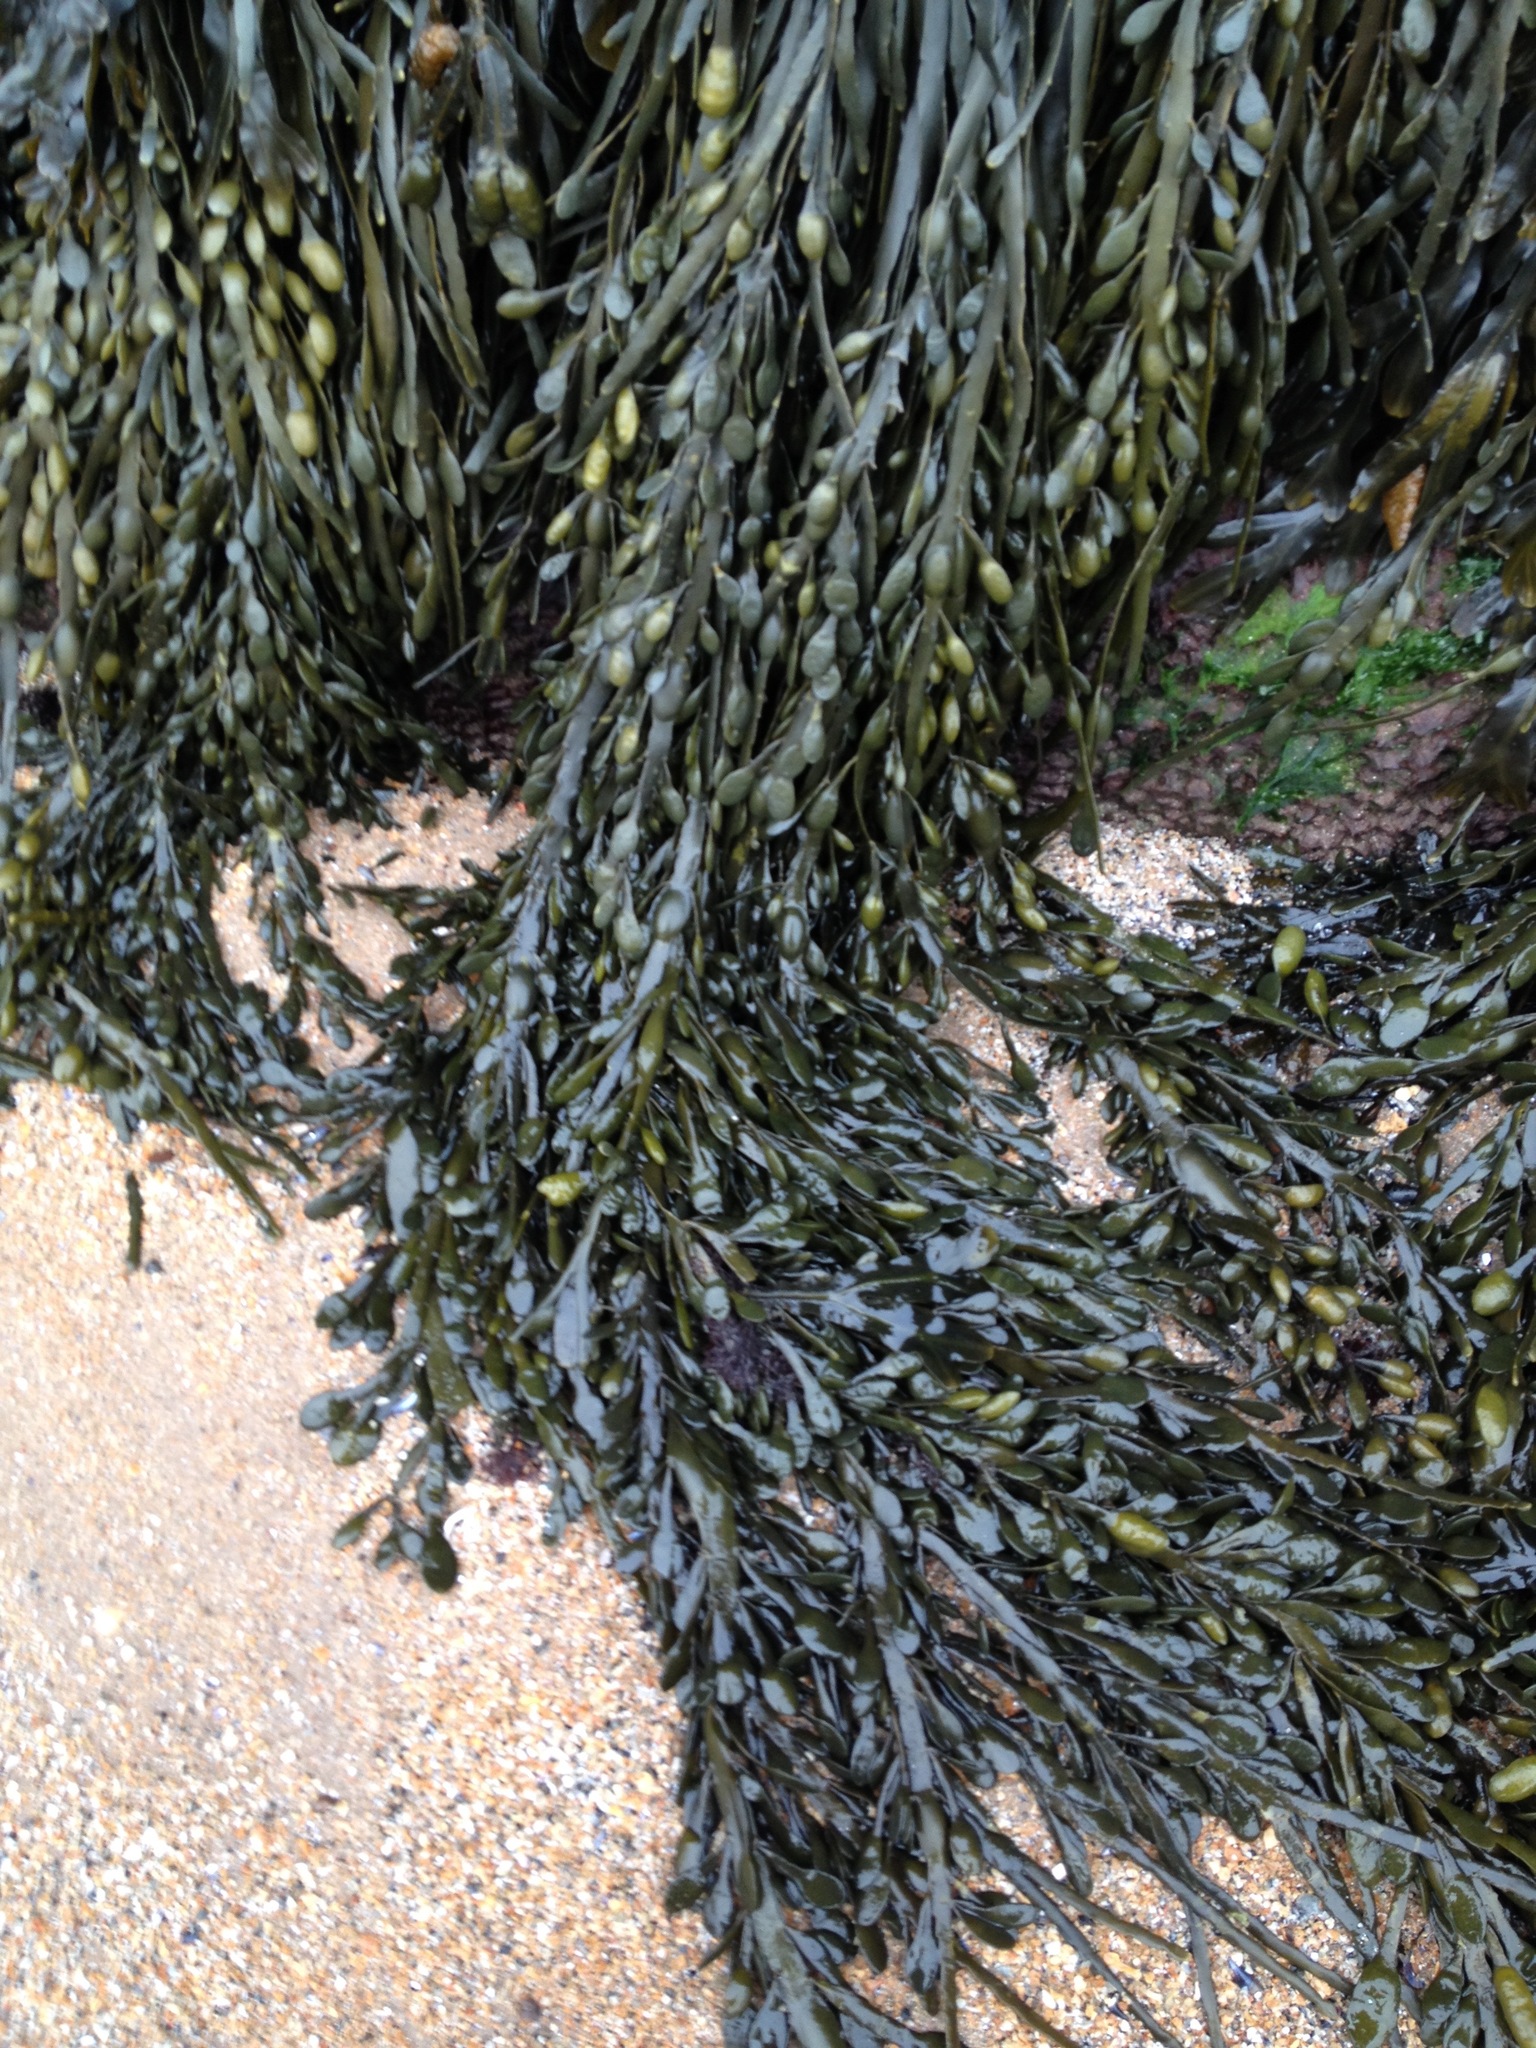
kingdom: Chromista
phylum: Ochrophyta
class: Phaeophyceae
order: Fucales
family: Fucaceae
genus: Ascophyllum
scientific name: Ascophyllum nodosum
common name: Knotted wrack
